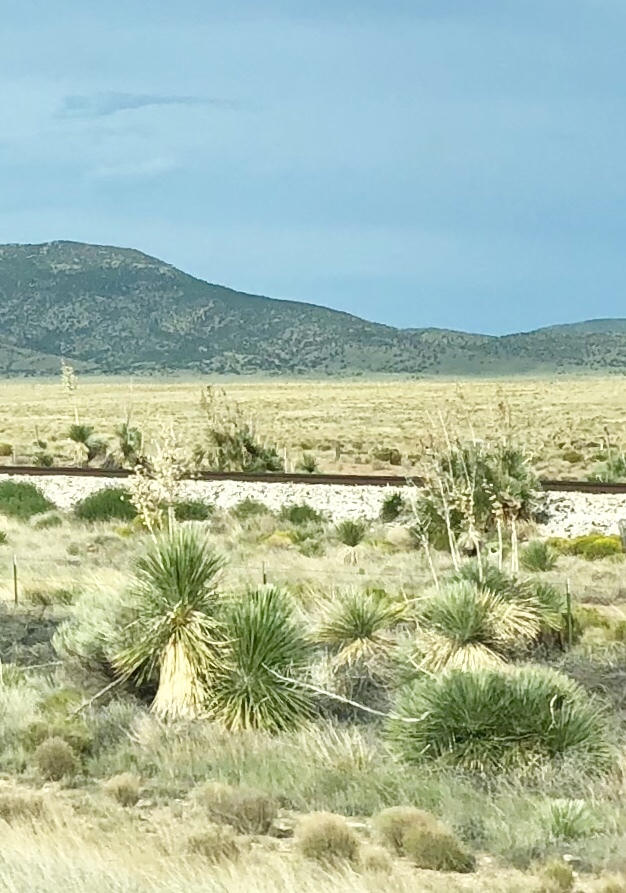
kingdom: Plantae
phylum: Tracheophyta
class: Liliopsida
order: Asparagales
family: Asparagaceae
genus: Yucca
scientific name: Yucca elata
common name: Palmella
